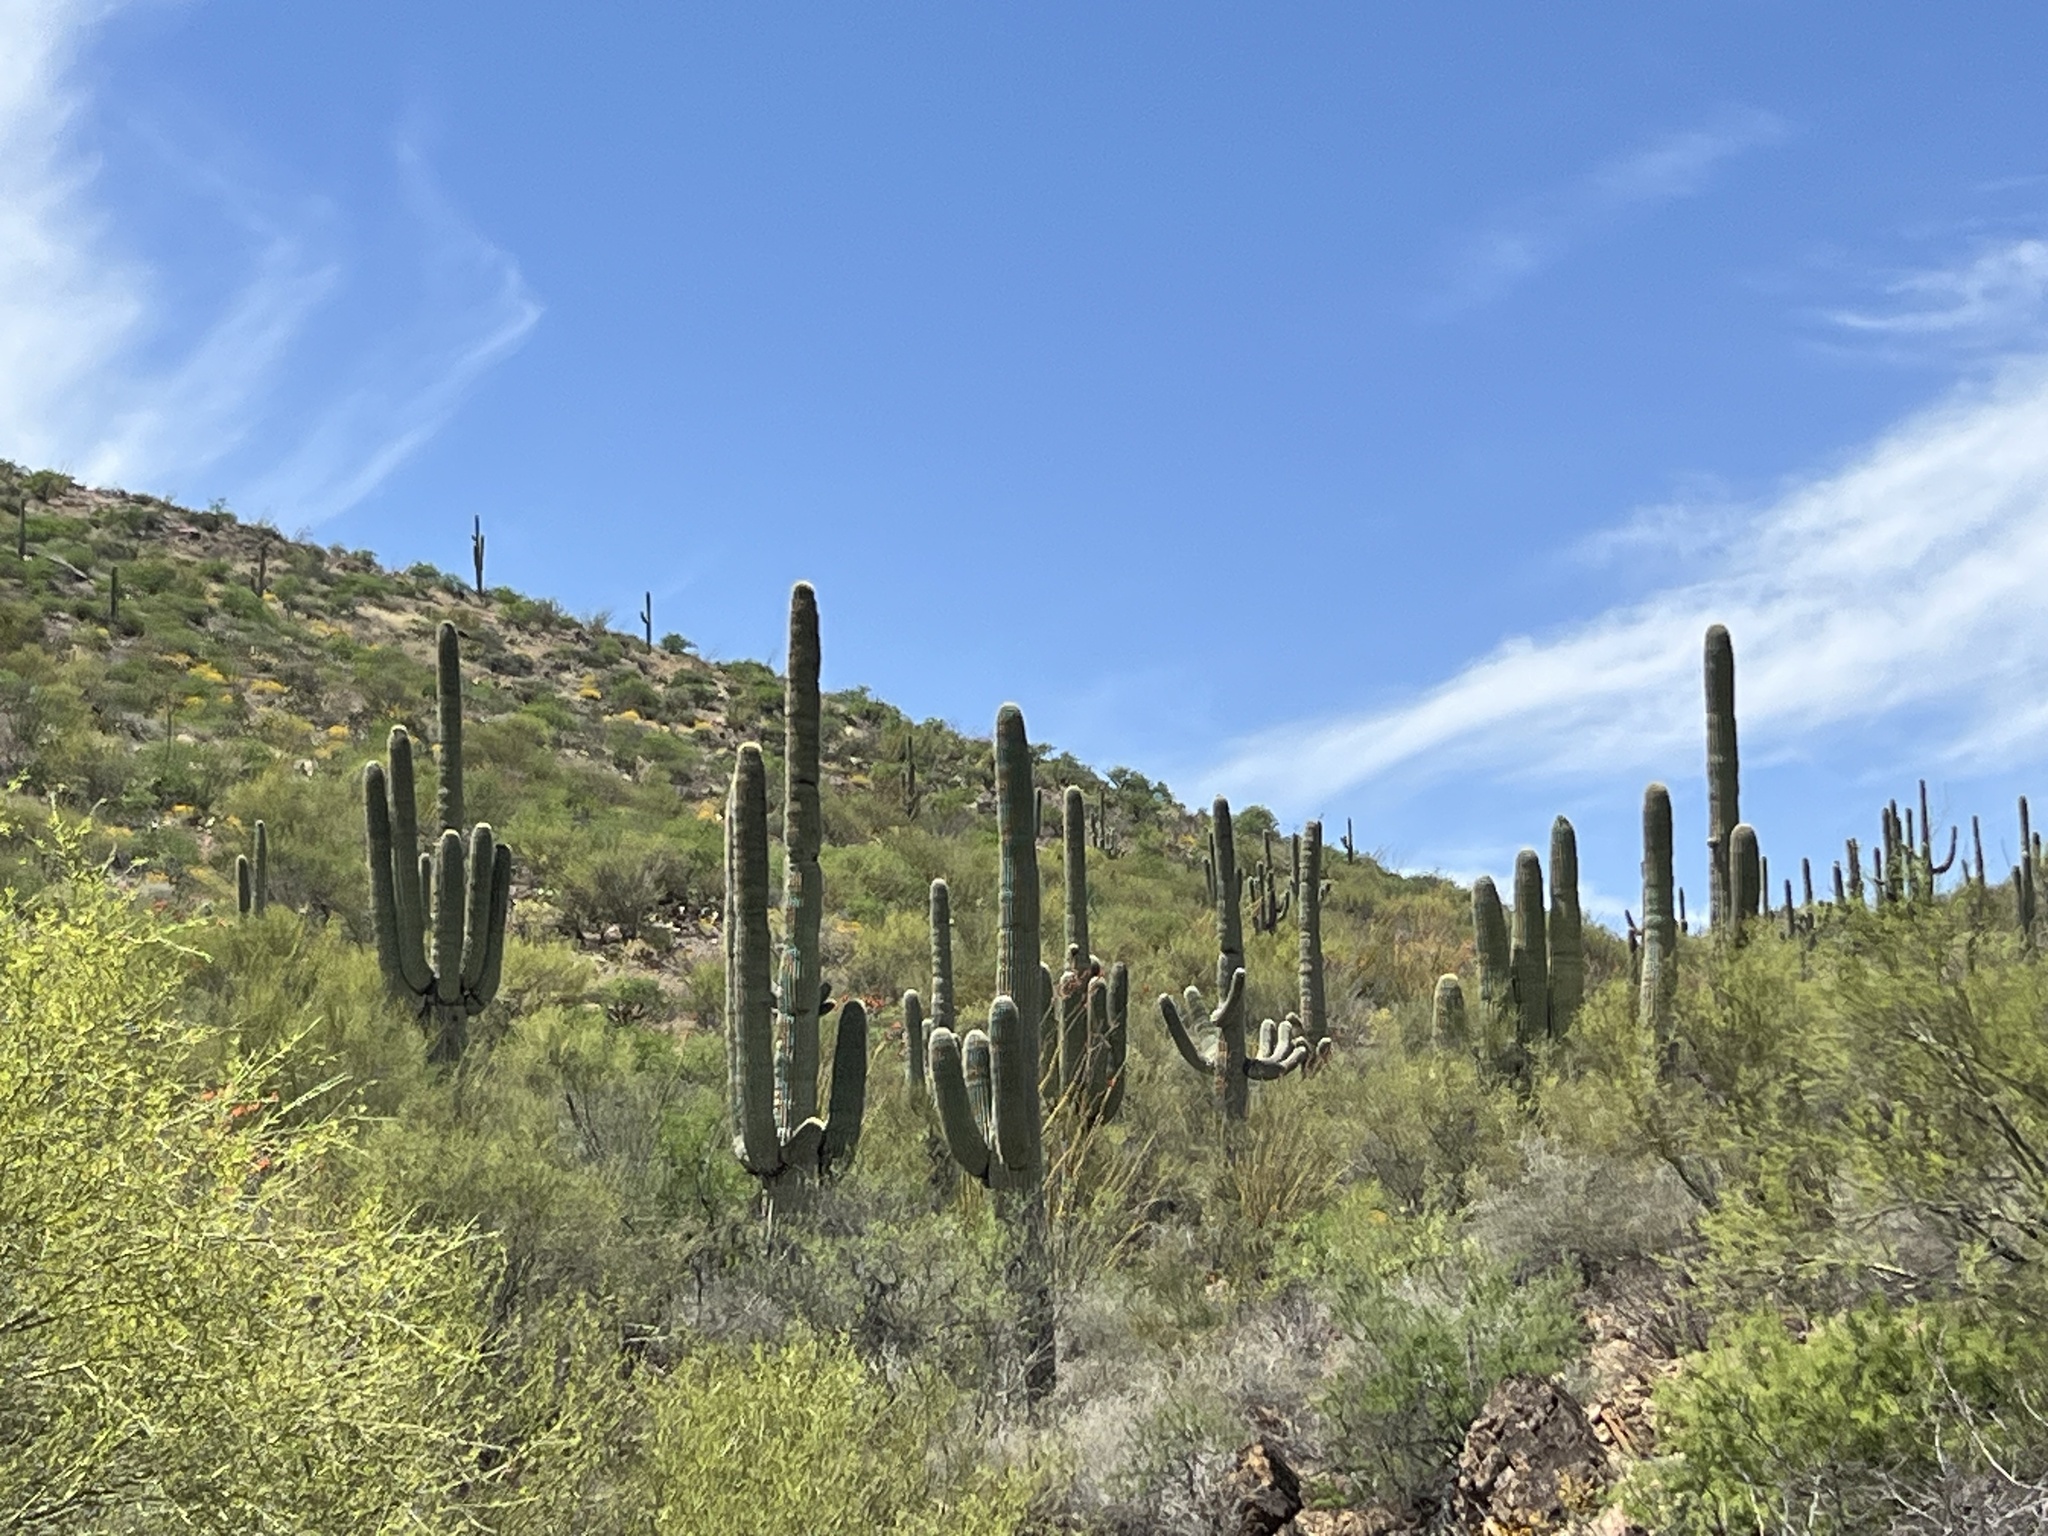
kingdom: Plantae
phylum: Tracheophyta
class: Magnoliopsida
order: Caryophyllales
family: Cactaceae
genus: Carnegiea
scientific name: Carnegiea gigantea
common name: Saguaro
